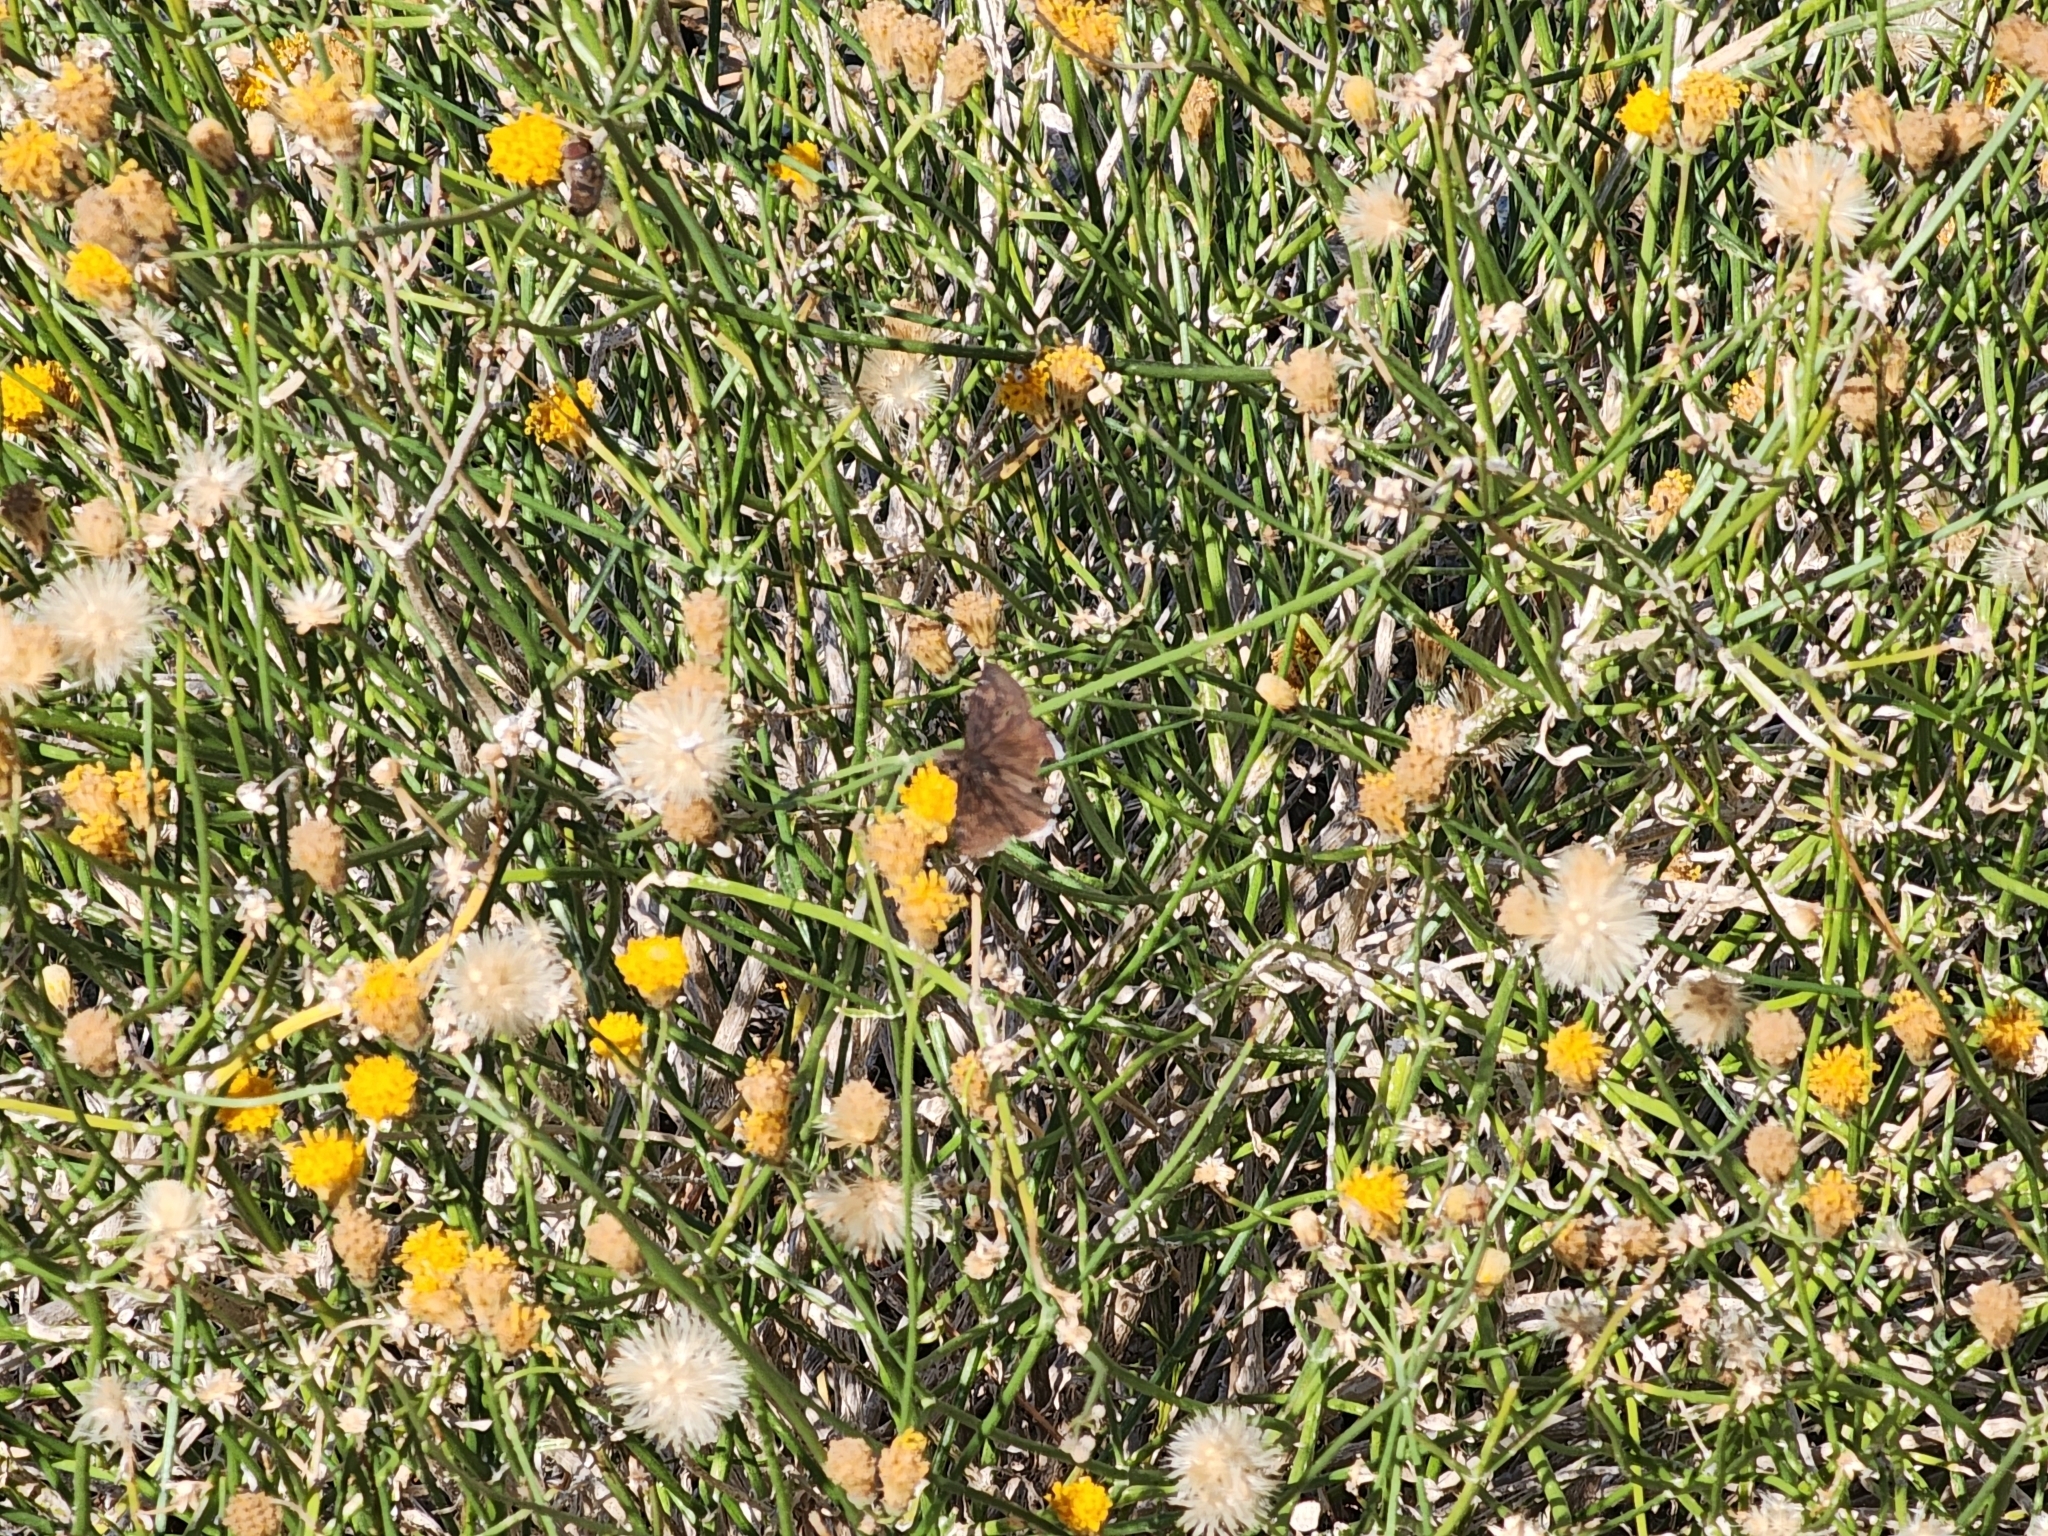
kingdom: Animalia
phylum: Arthropoda
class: Insecta
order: Lepidoptera
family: Hesperiidae
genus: Erynnis
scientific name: Erynnis funeralis
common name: Funereal duskywing
